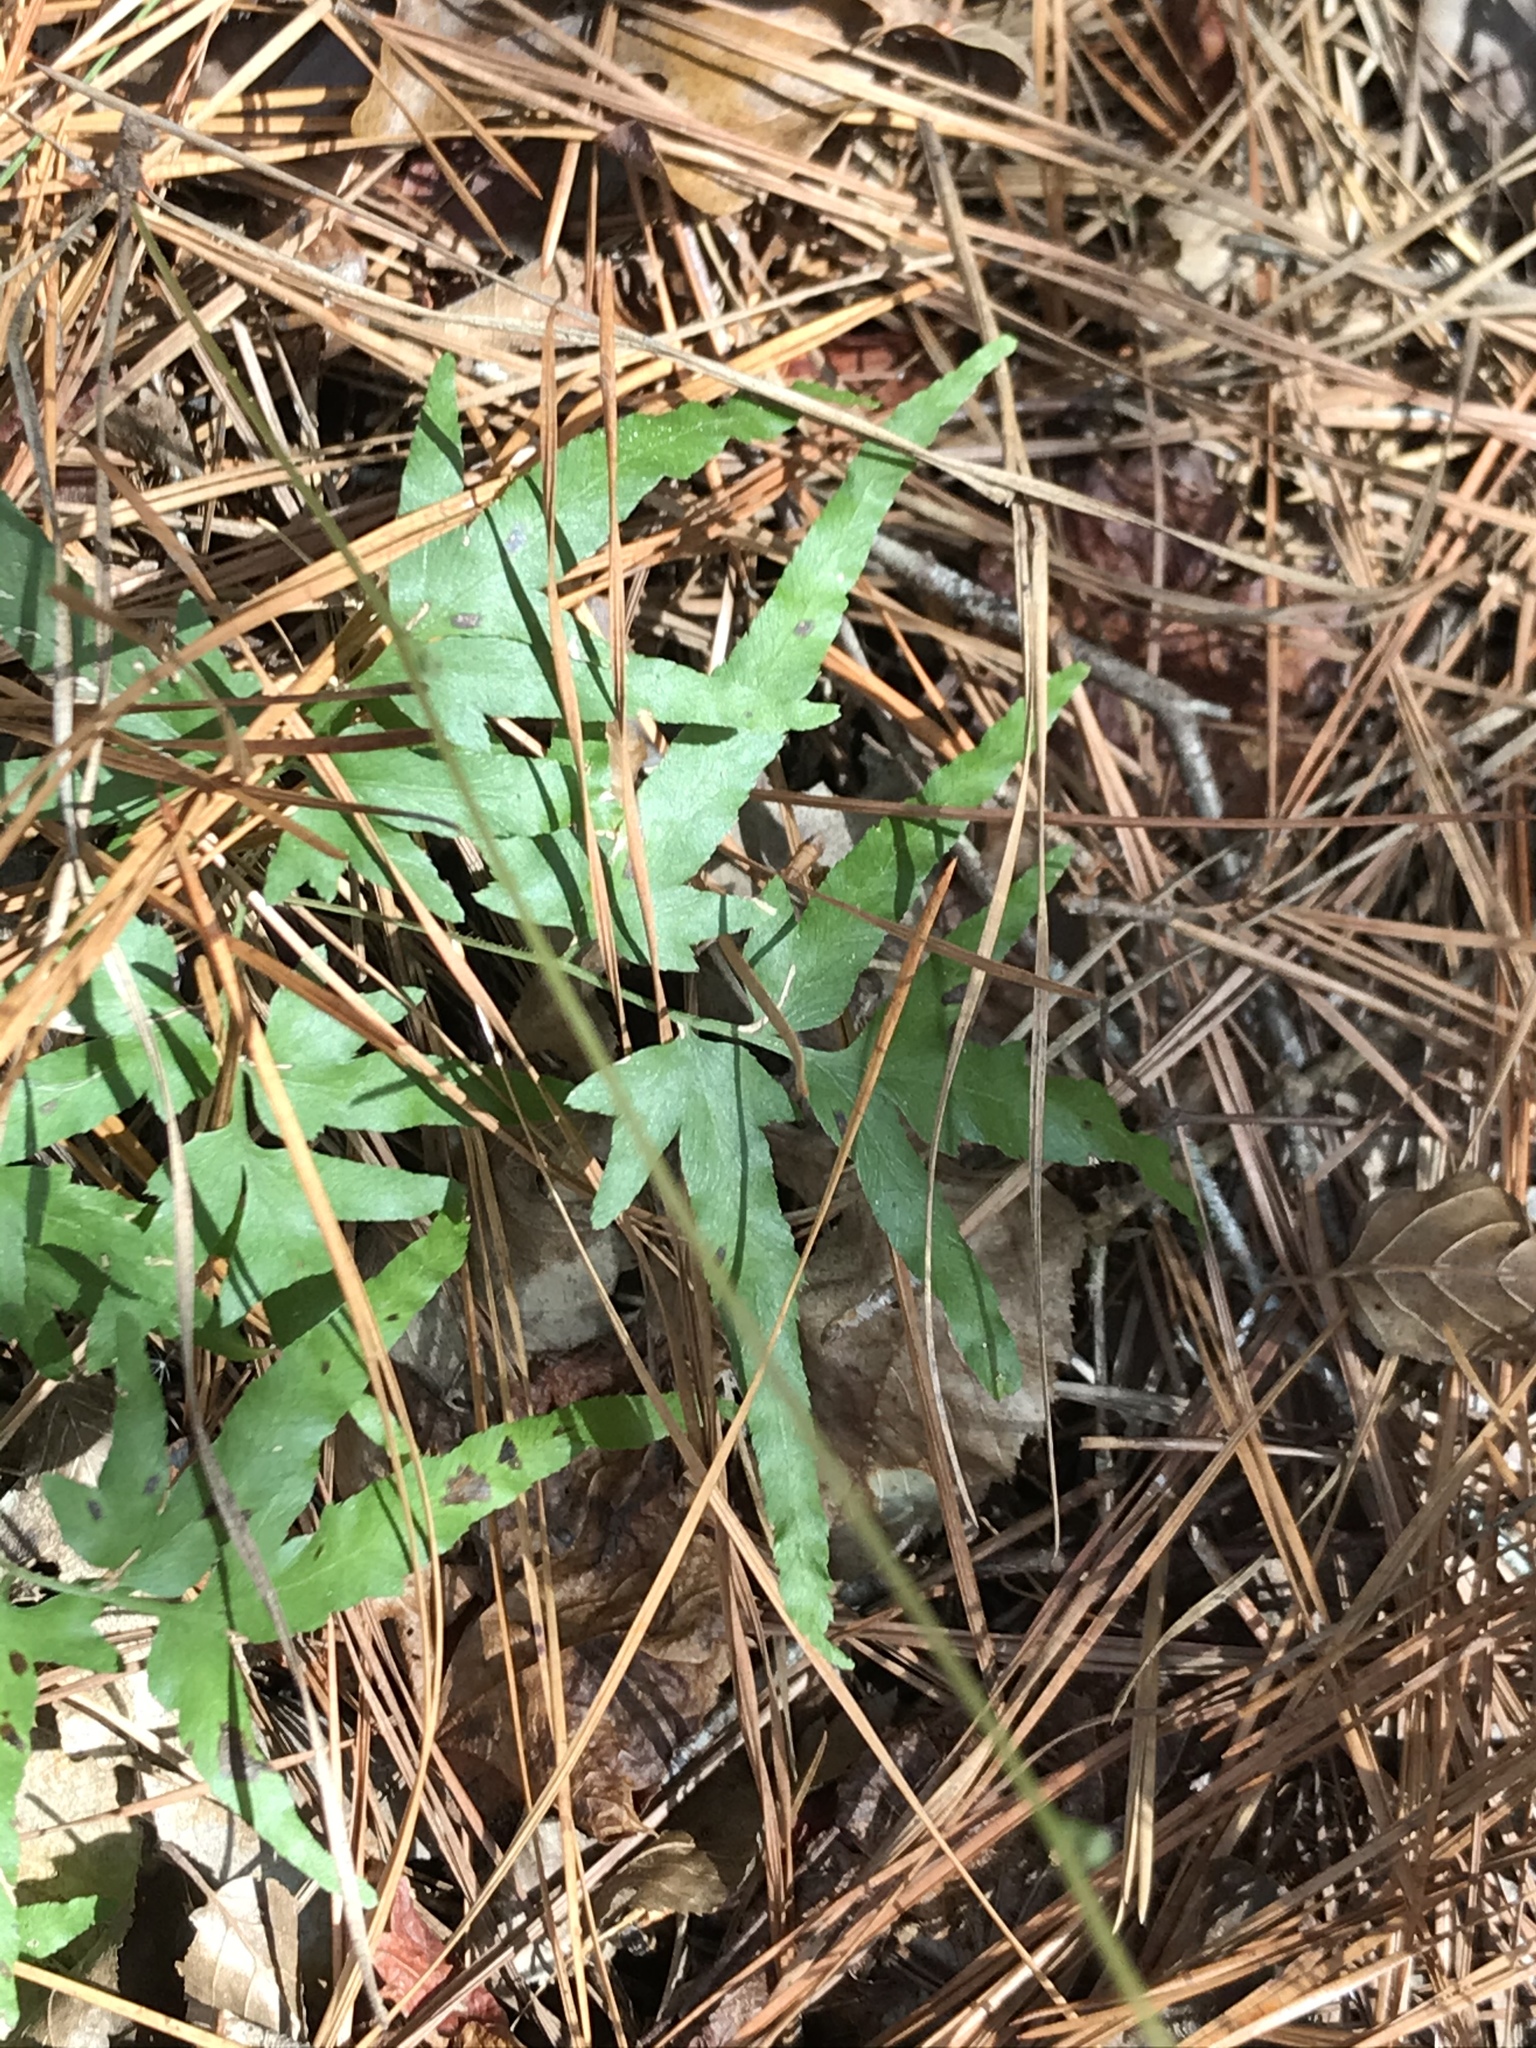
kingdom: Plantae
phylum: Tracheophyta
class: Polypodiopsida
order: Schizaeales
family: Lygodiaceae
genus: Lygodium
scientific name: Lygodium japonicum
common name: Japanese climbing fern
